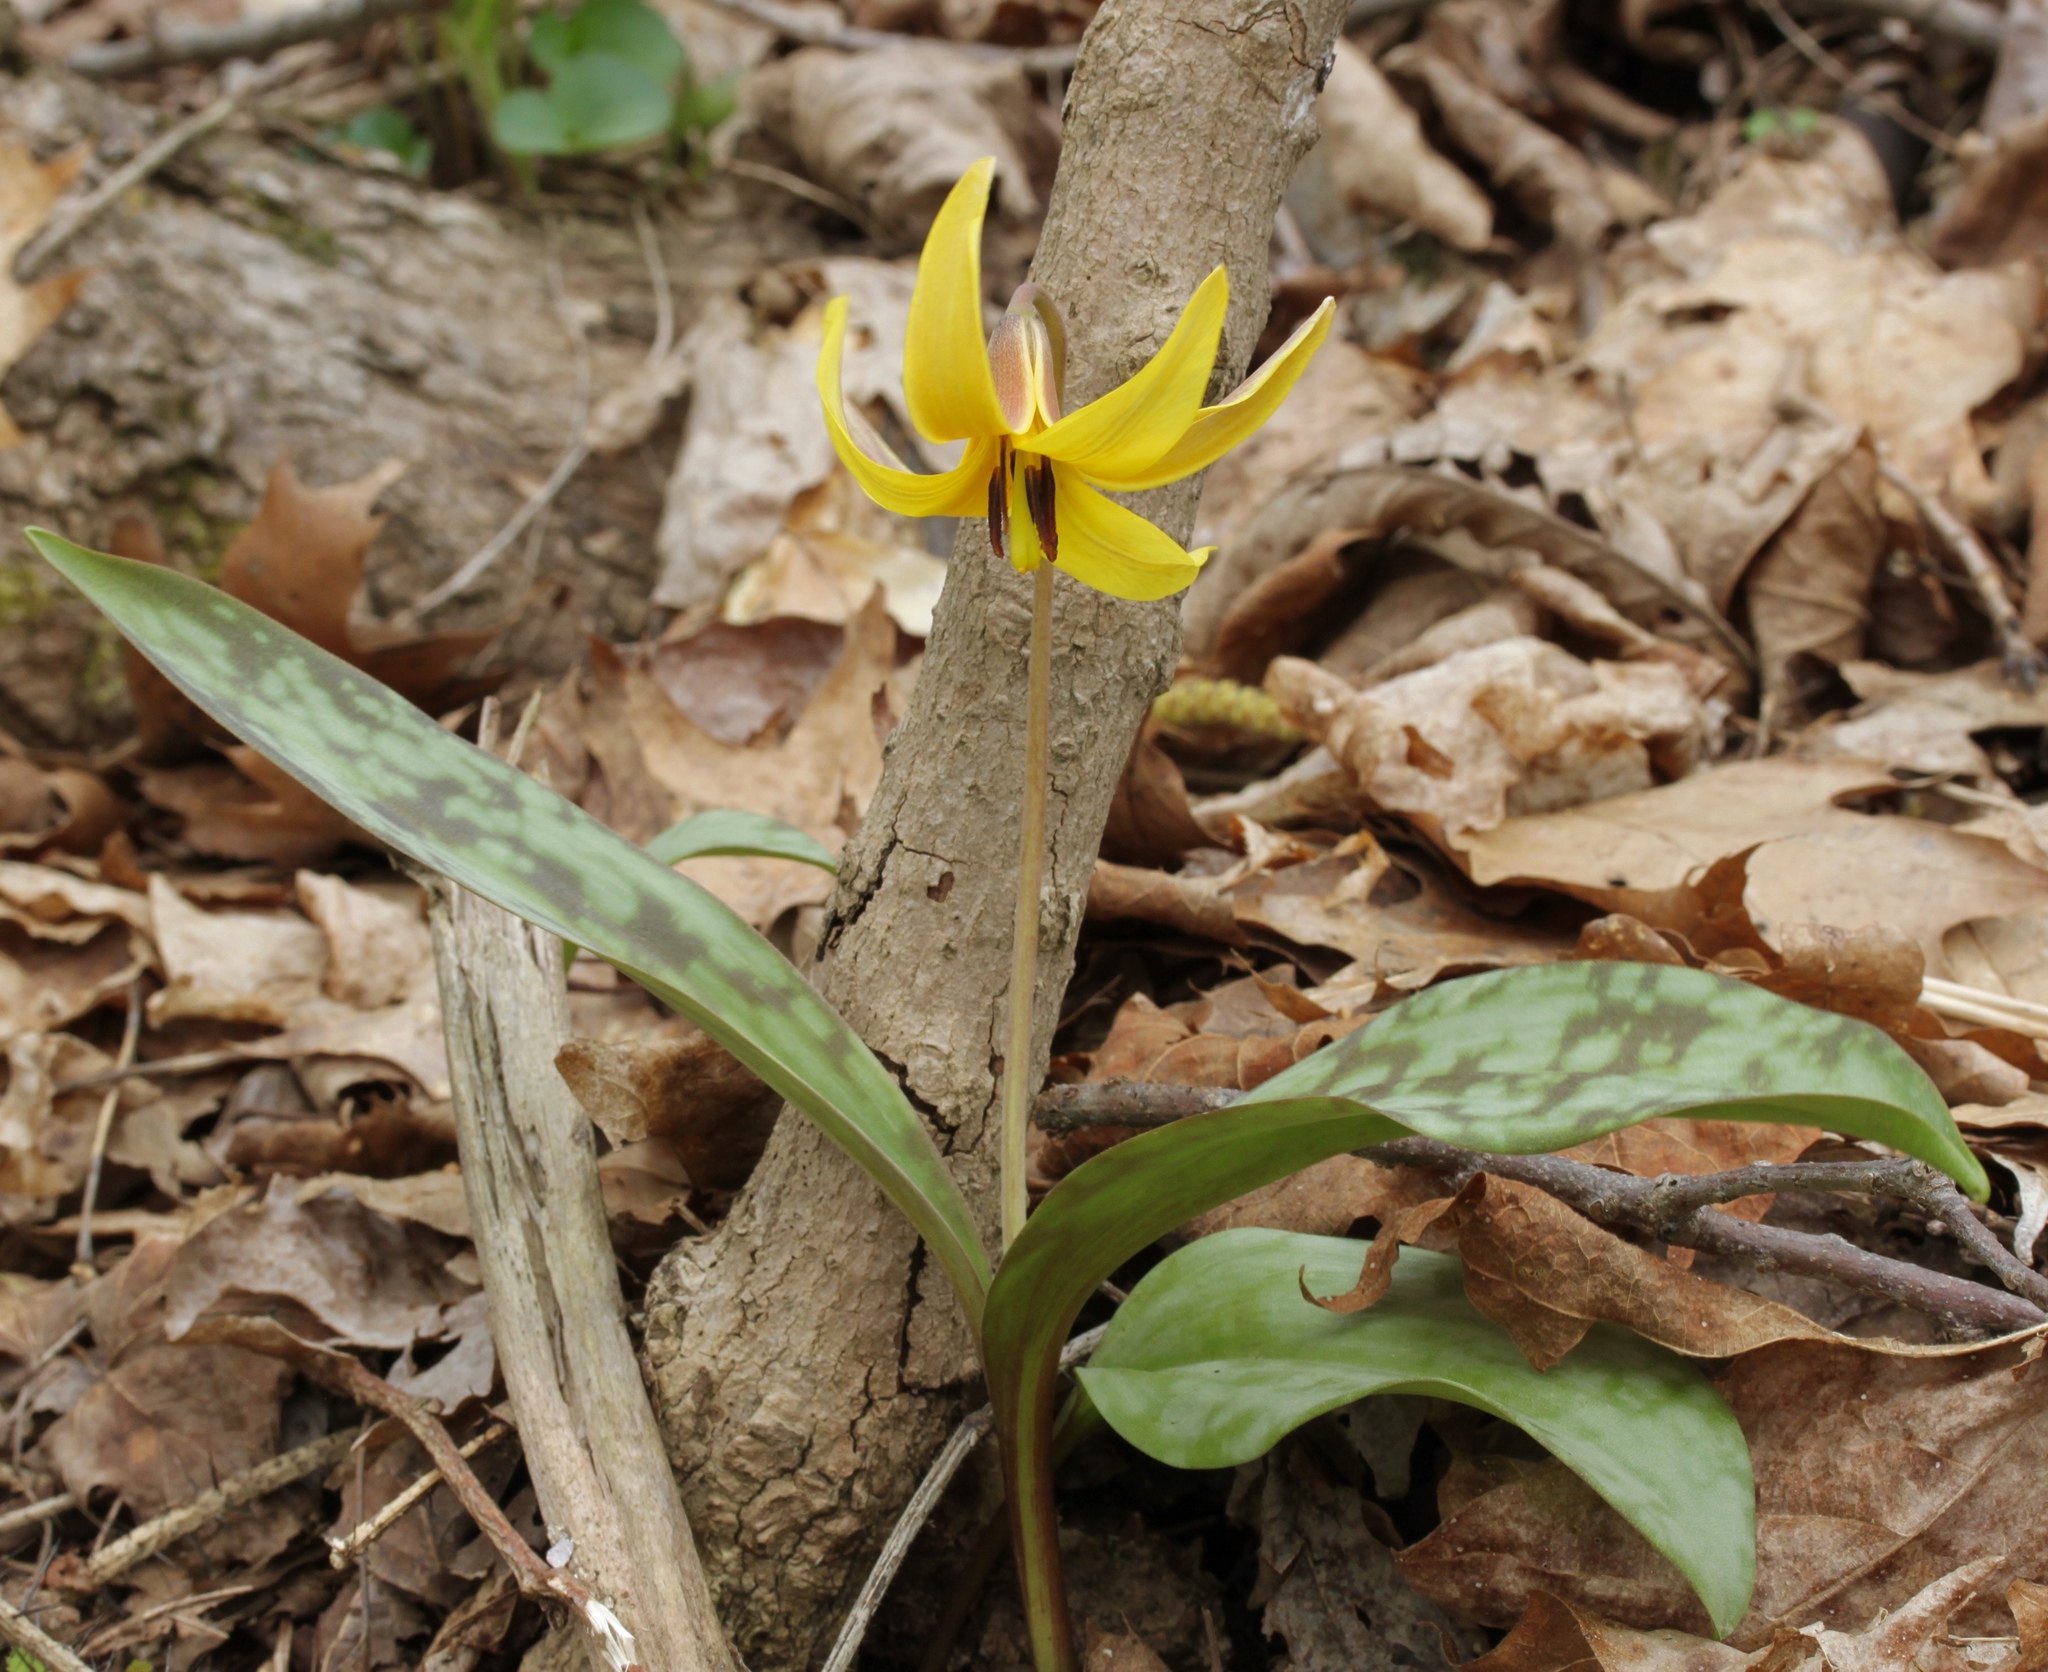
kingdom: Plantae
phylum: Tracheophyta
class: Liliopsida
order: Liliales
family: Liliaceae
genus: Erythronium
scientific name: Erythronium americanum
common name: Yellow adder's-tongue
